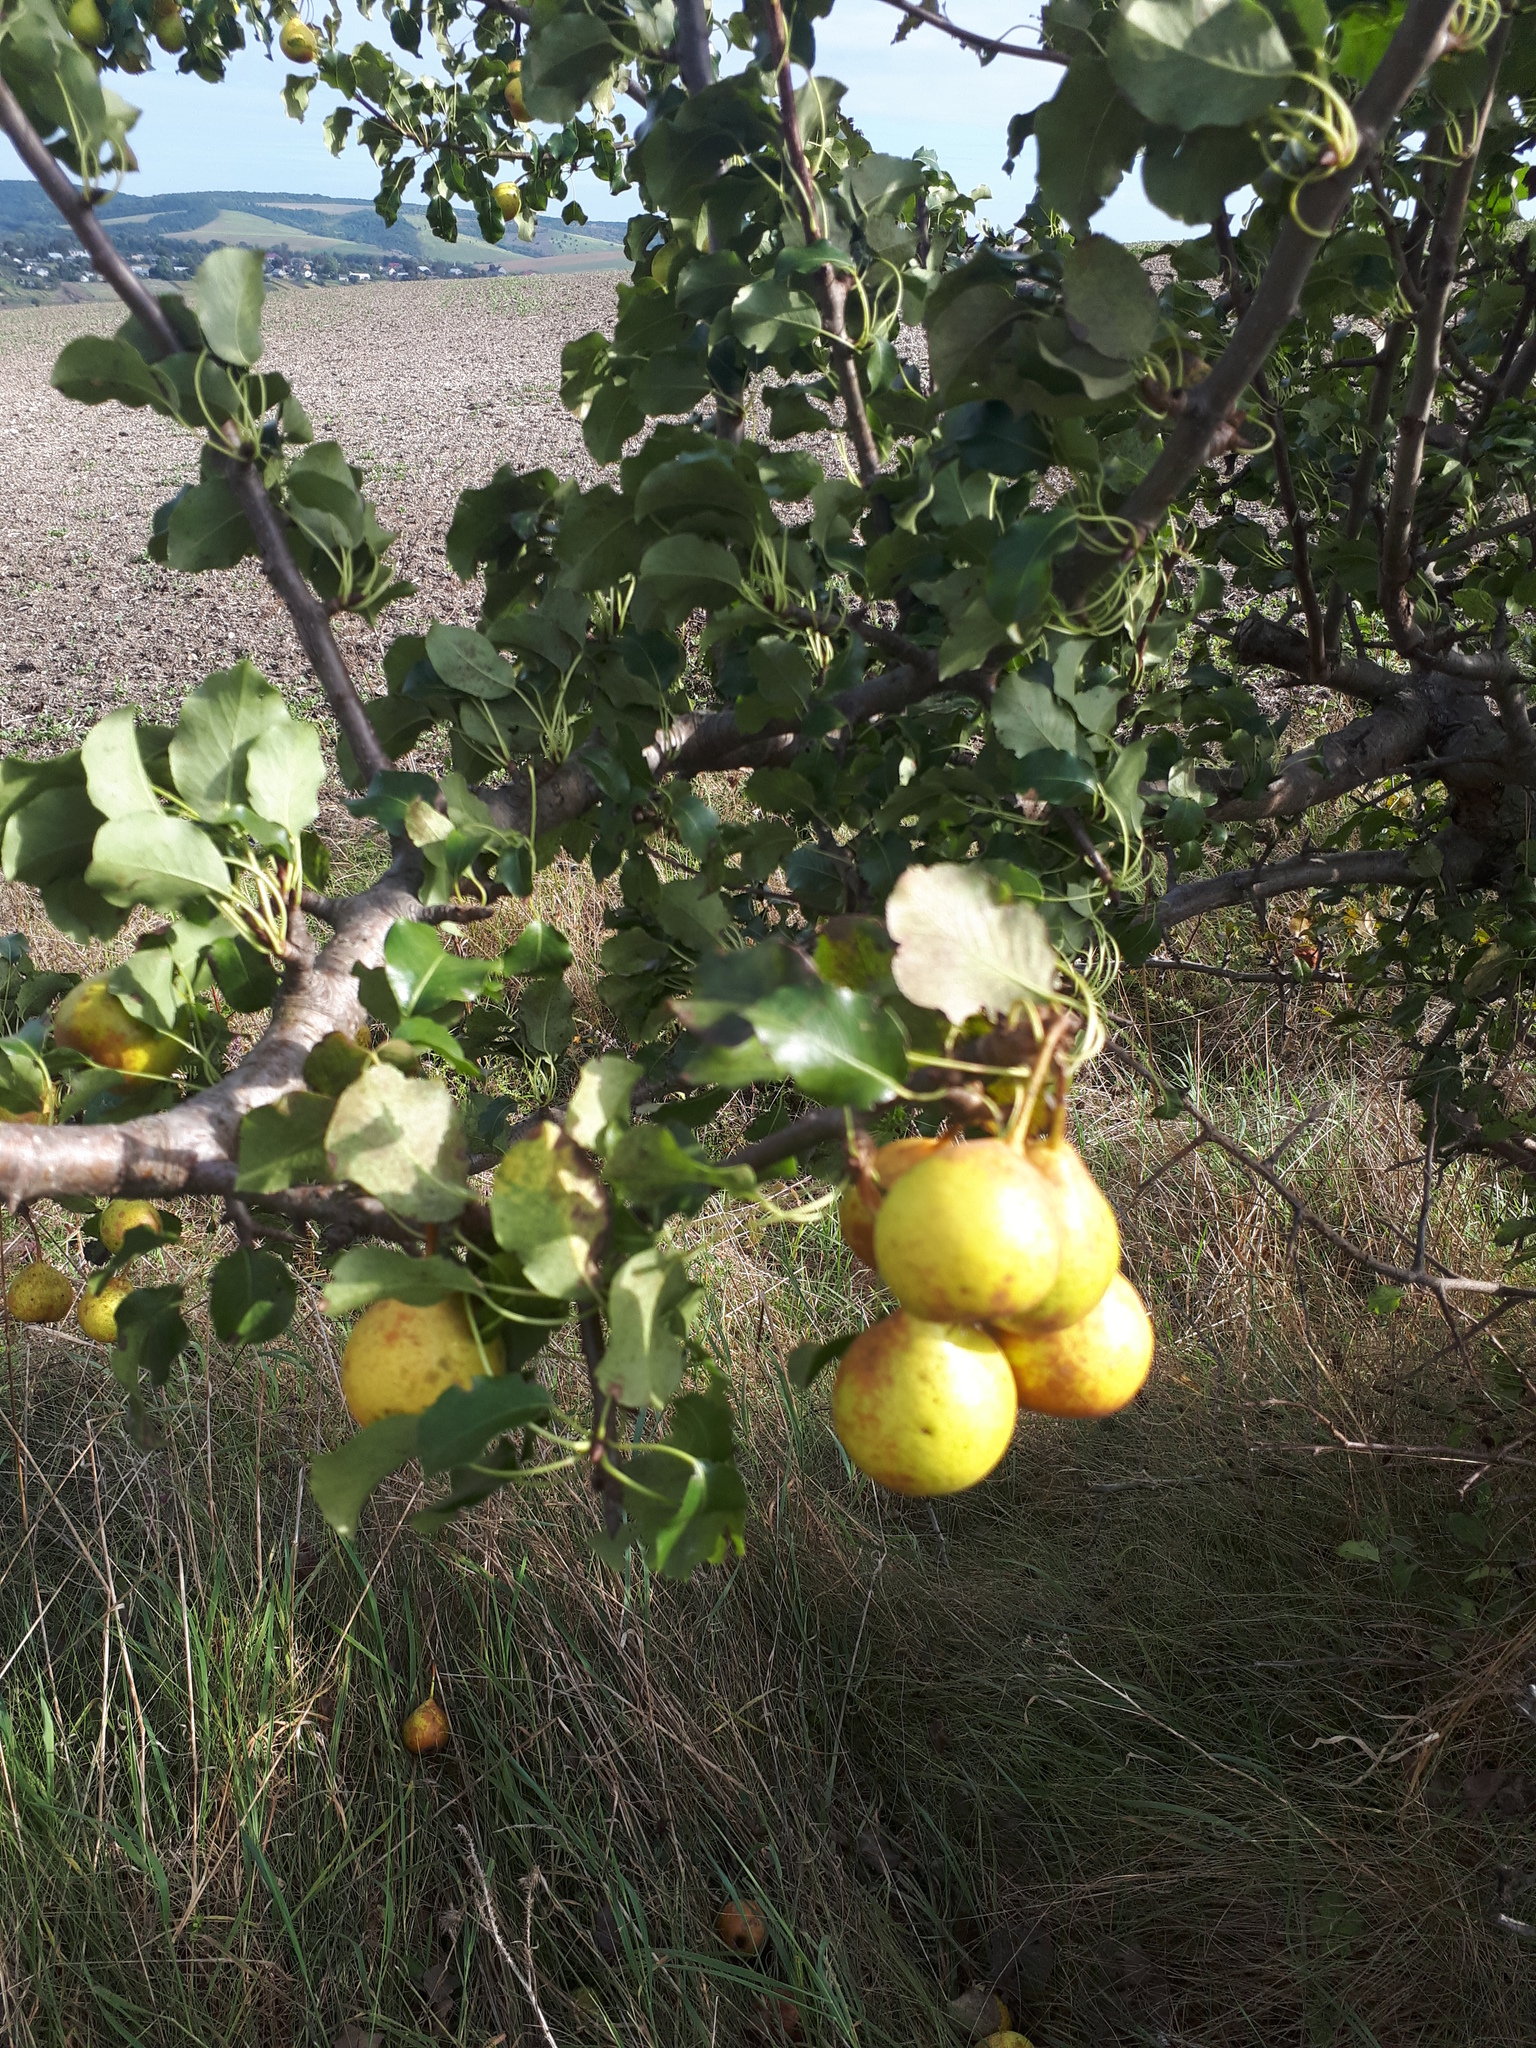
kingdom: Plantae
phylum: Tracheophyta
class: Magnoliopsida
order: Rosales
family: Rosaceae
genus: Pyrus
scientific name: Pyrus
